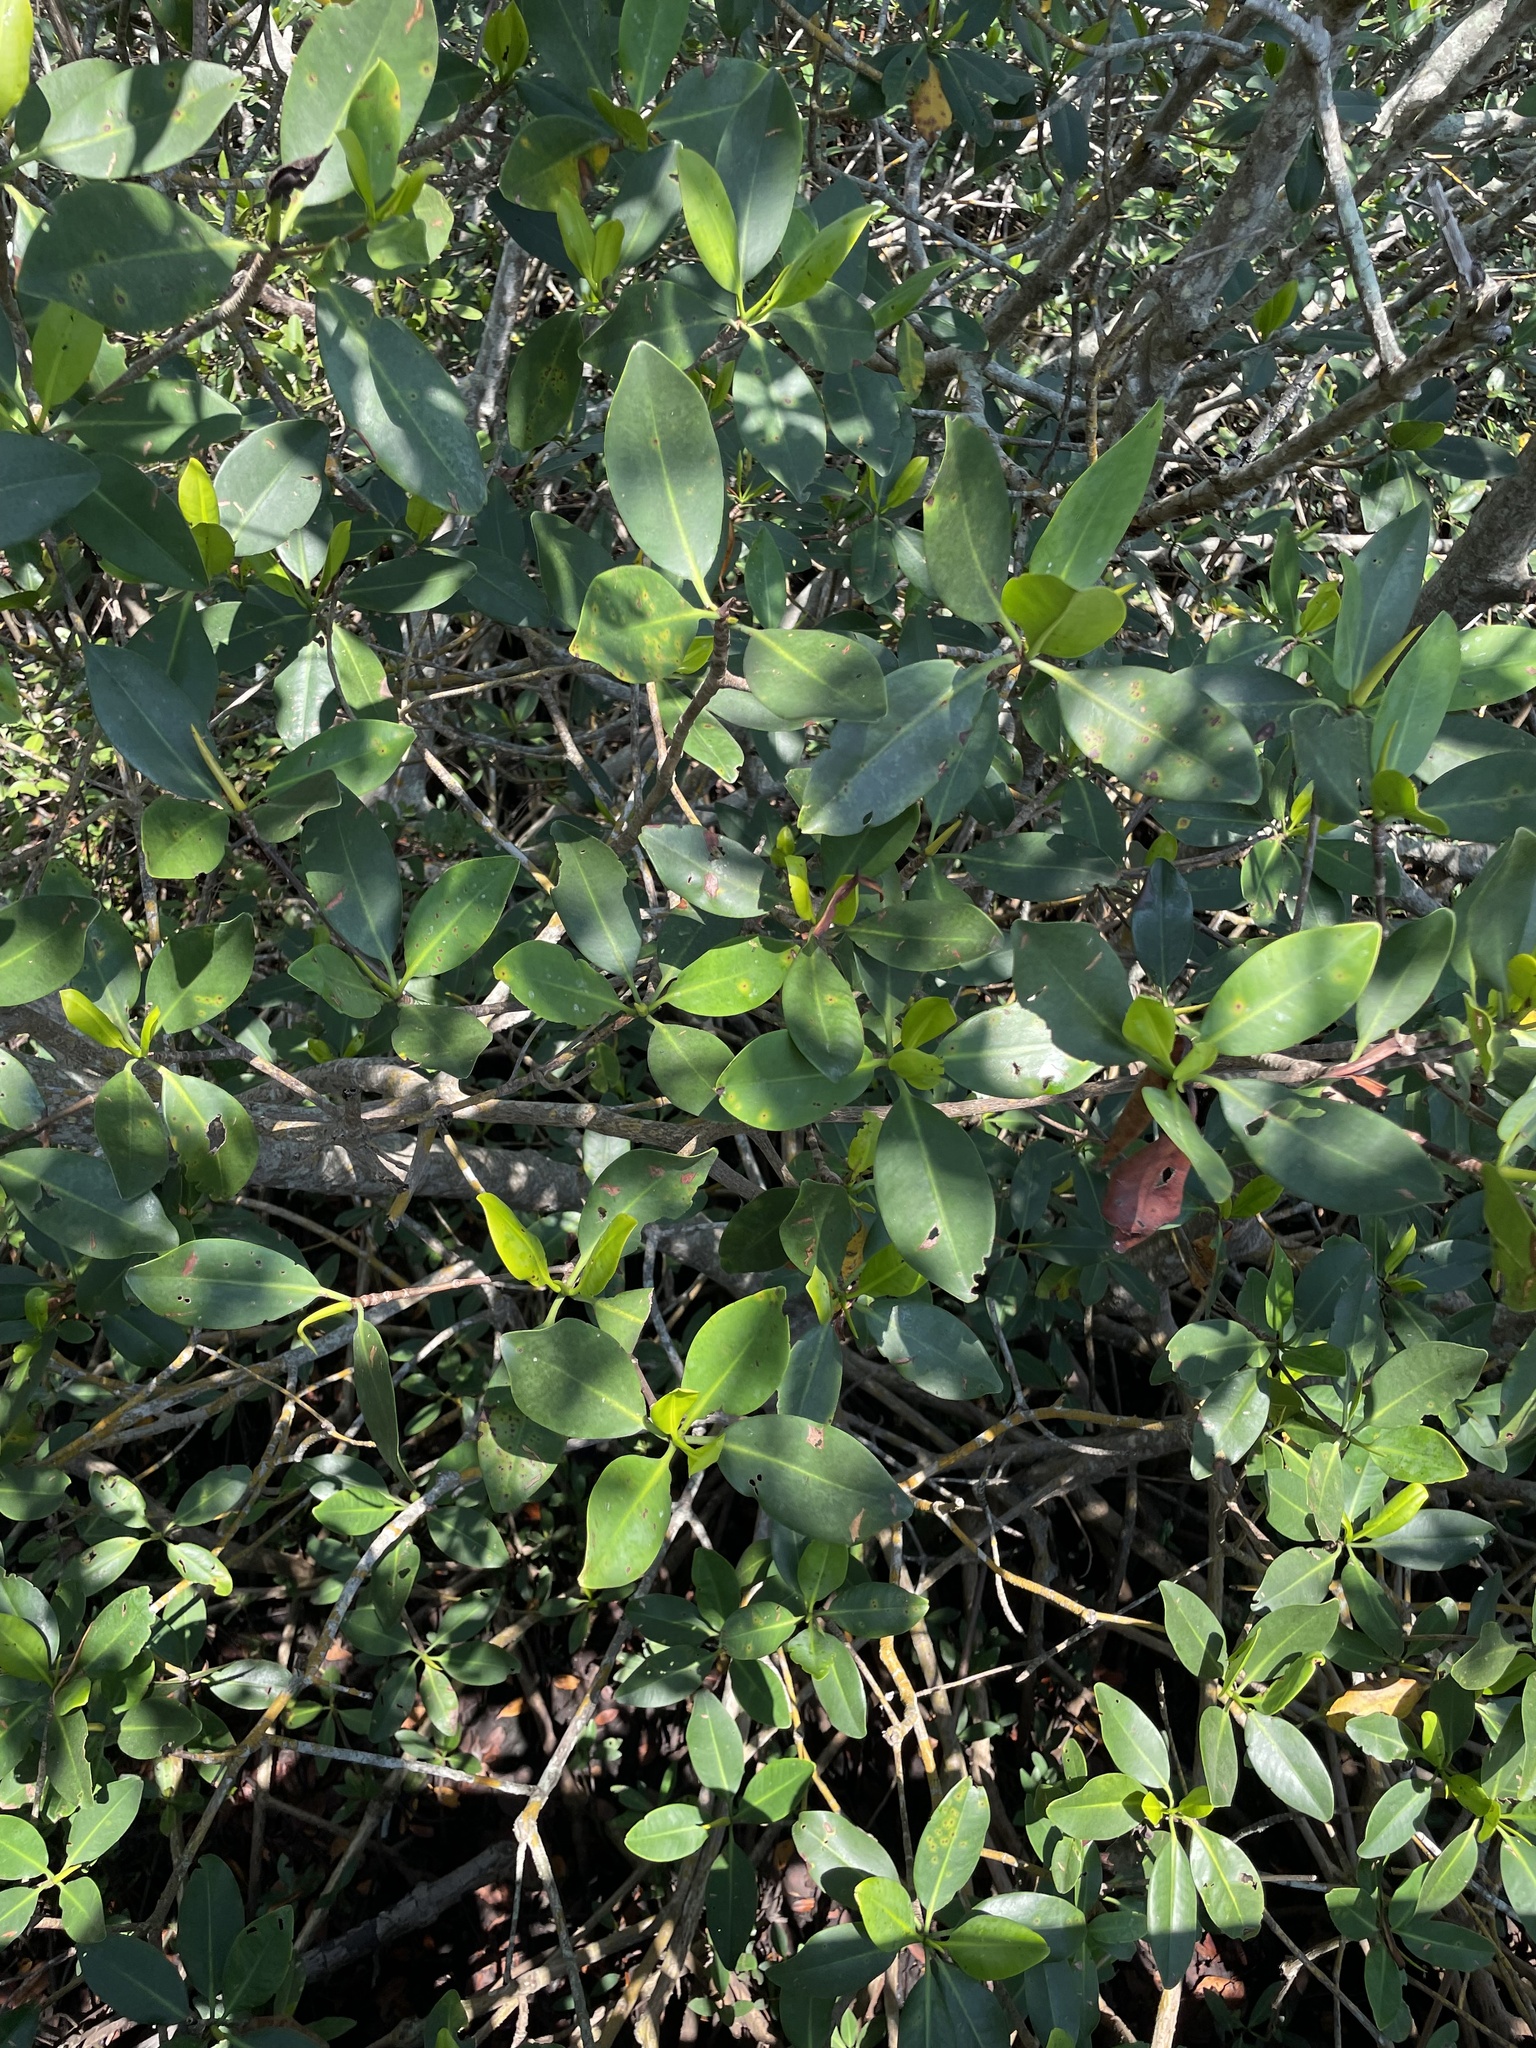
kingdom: Plantae
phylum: Tracheophyta
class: Magnoliopsida
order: Malpighiales
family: Rhizophoraceae
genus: Rhizophora
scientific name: Rhizophora mangle
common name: Red mangrove
